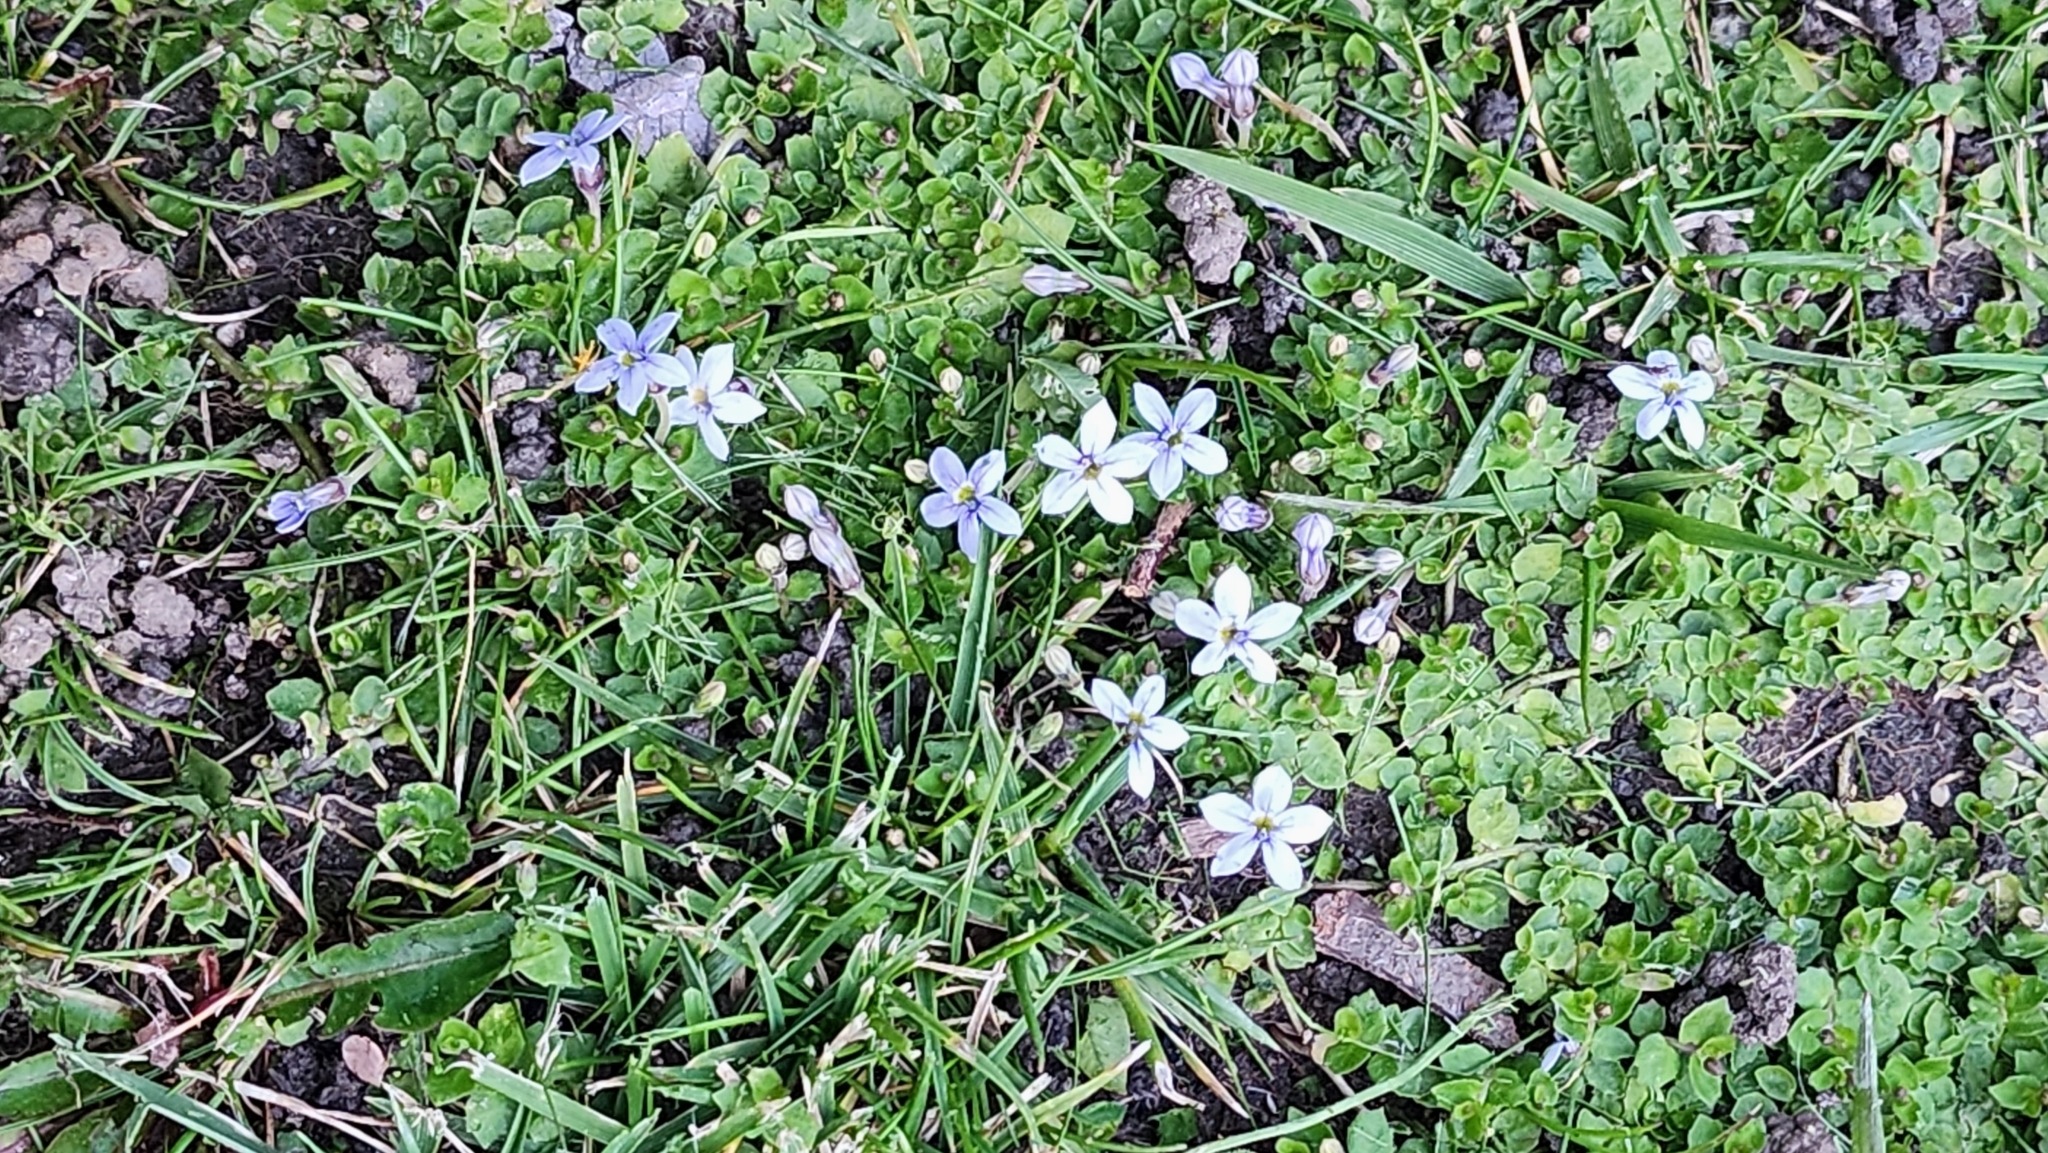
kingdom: Plantae
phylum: Tracheophyta
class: Magnoliopsida
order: Asterales
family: Campanulaceae
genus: Lobelia
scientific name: Lobelia pedunculata
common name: Matted pratia
